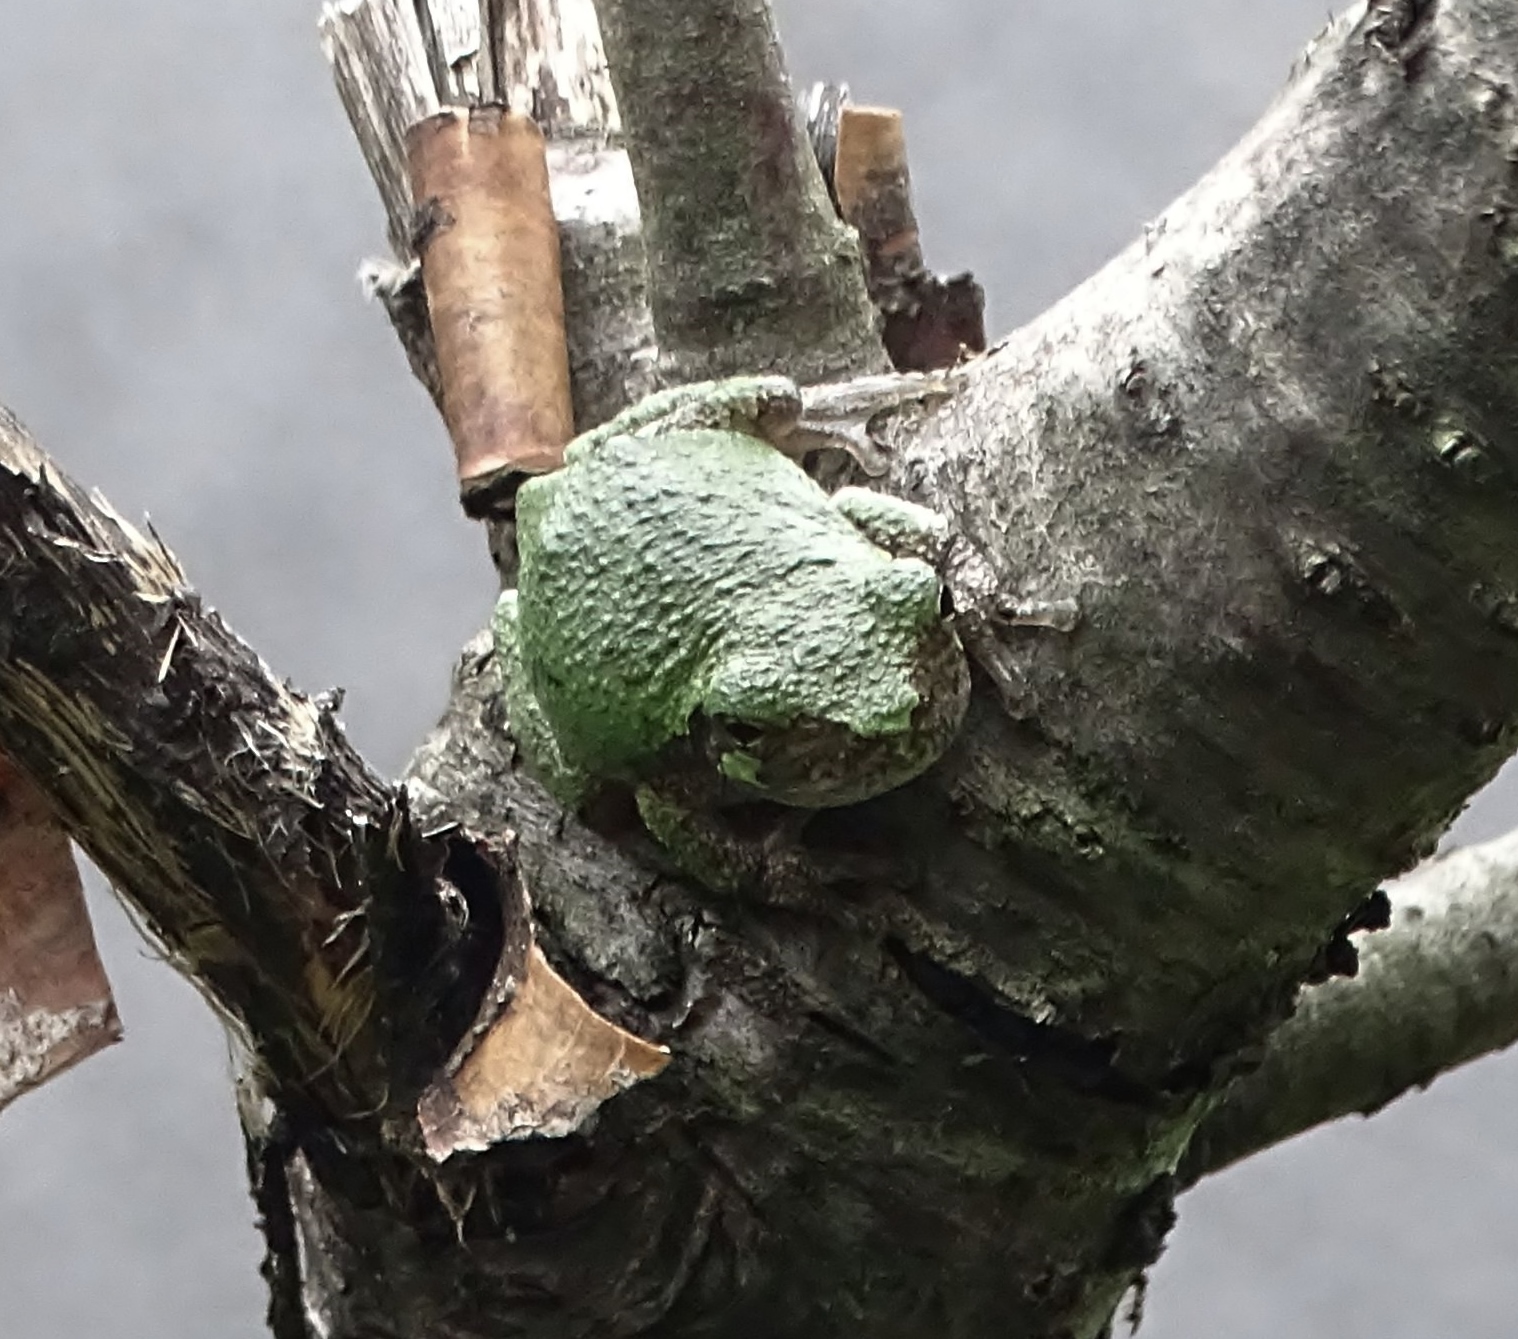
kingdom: Animalia
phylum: Chordata
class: Amphibia
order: Anura
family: Hylidae
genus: Dryophytes
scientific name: Dryophytes versicolor
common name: Gray treefrog
